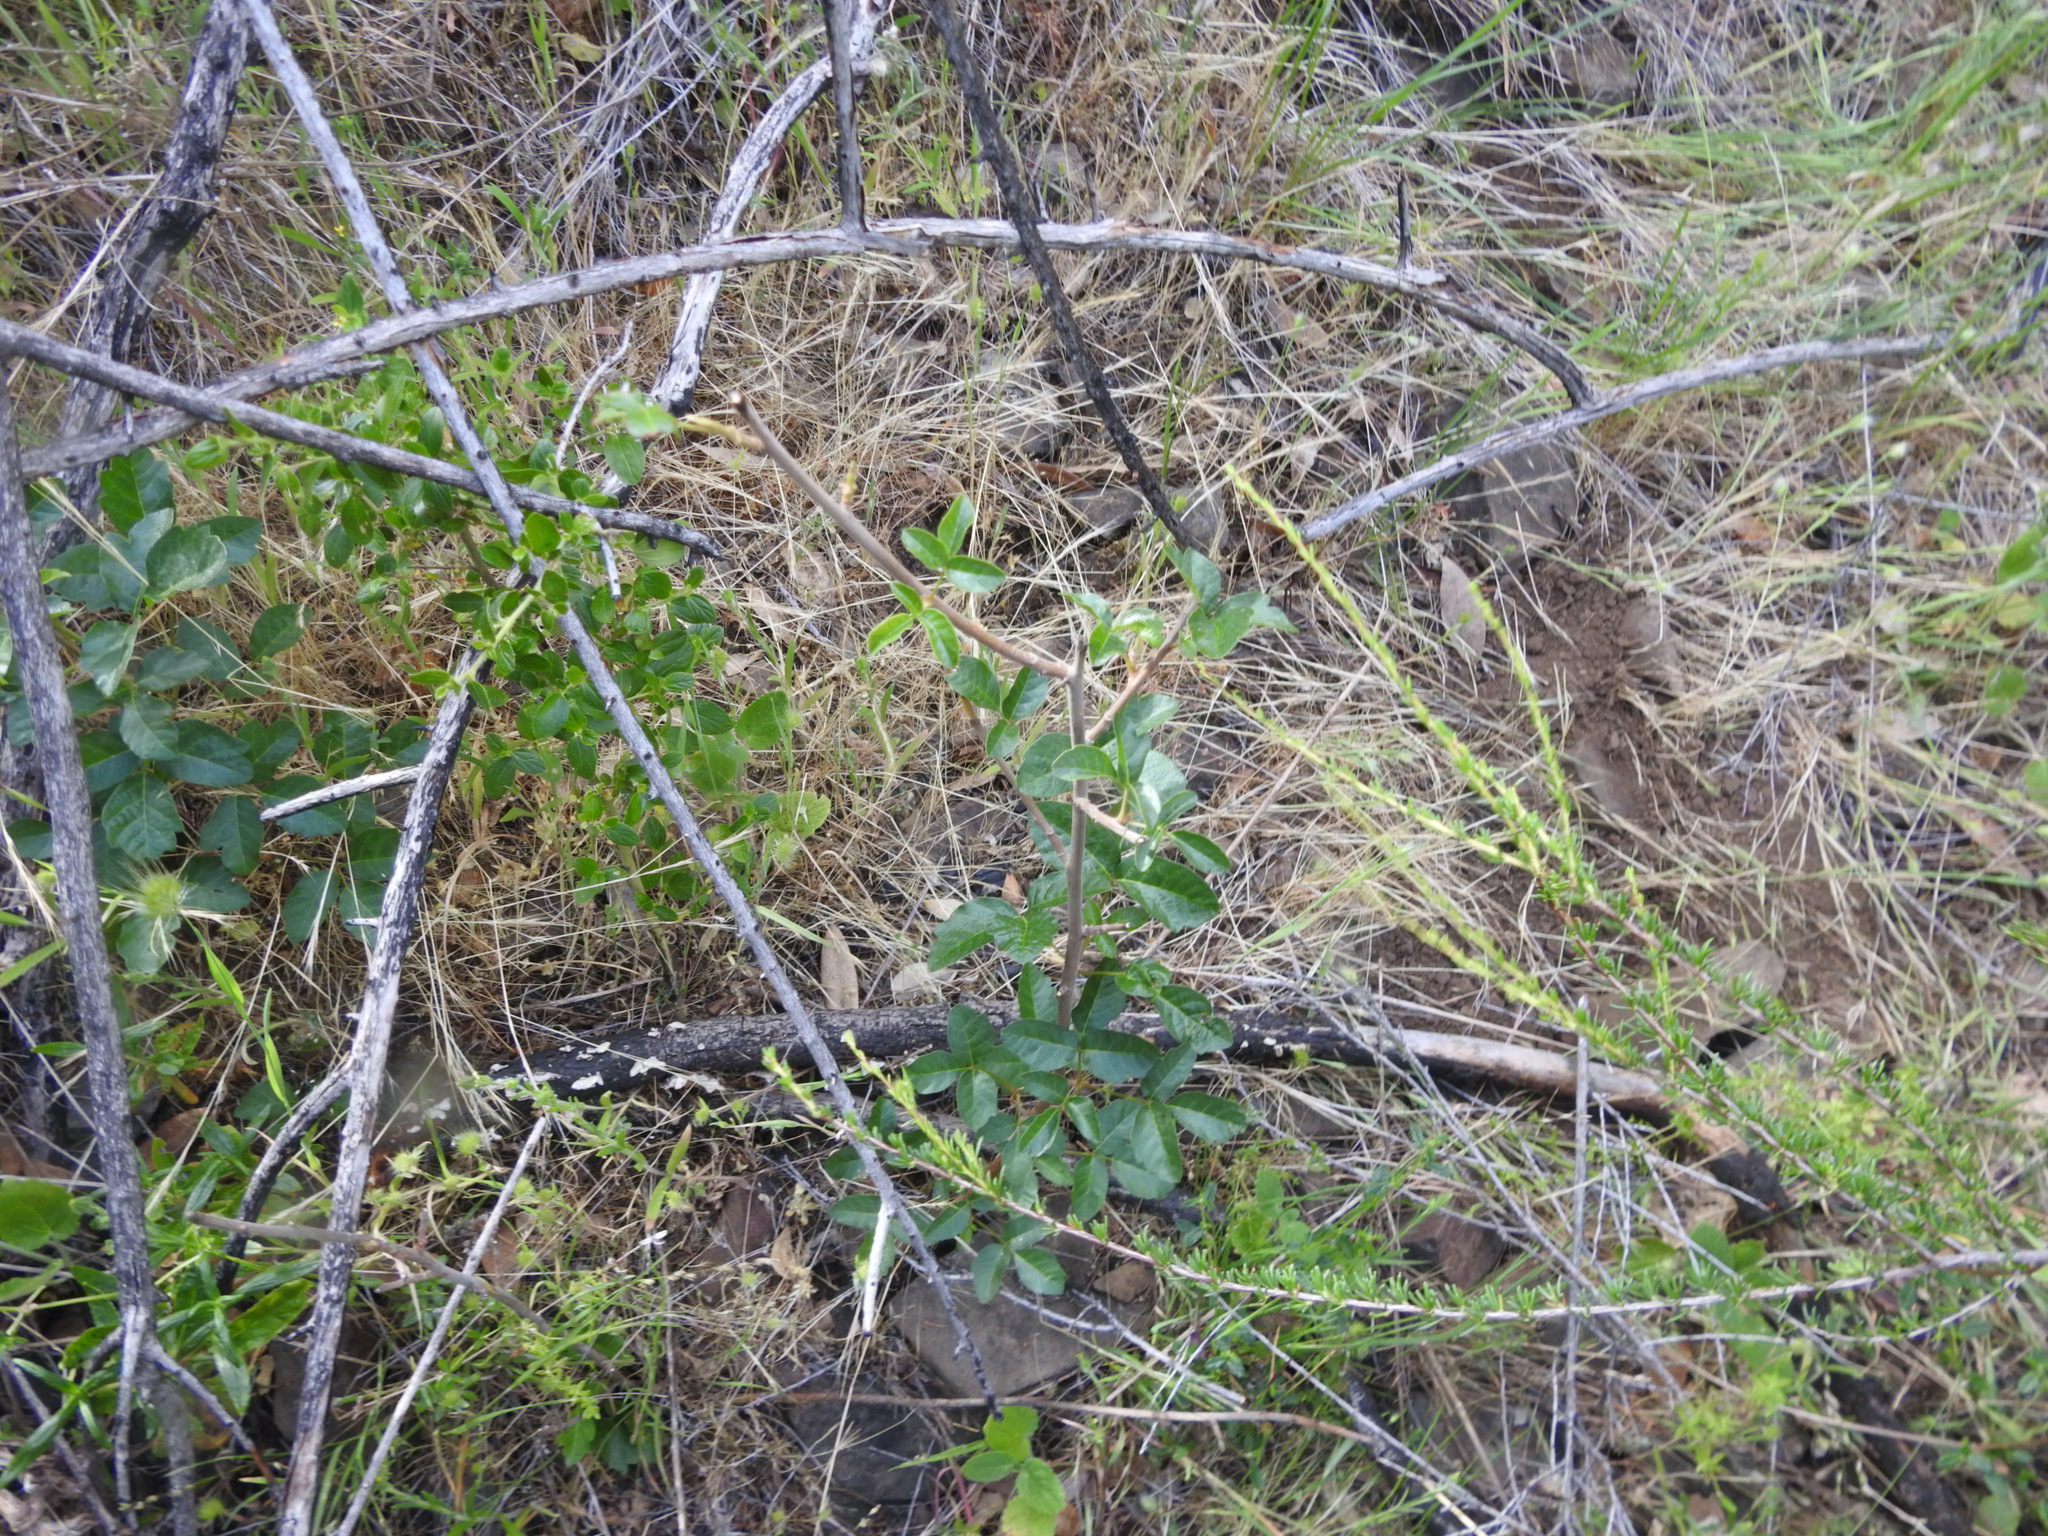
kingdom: Plantae
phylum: Tracheophyta
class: Magnoliopsida
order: Sapindales
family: Anacardiaceae
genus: Toxicodendron
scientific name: Toxicodendron diversilobum
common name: Pacific poison-oak
